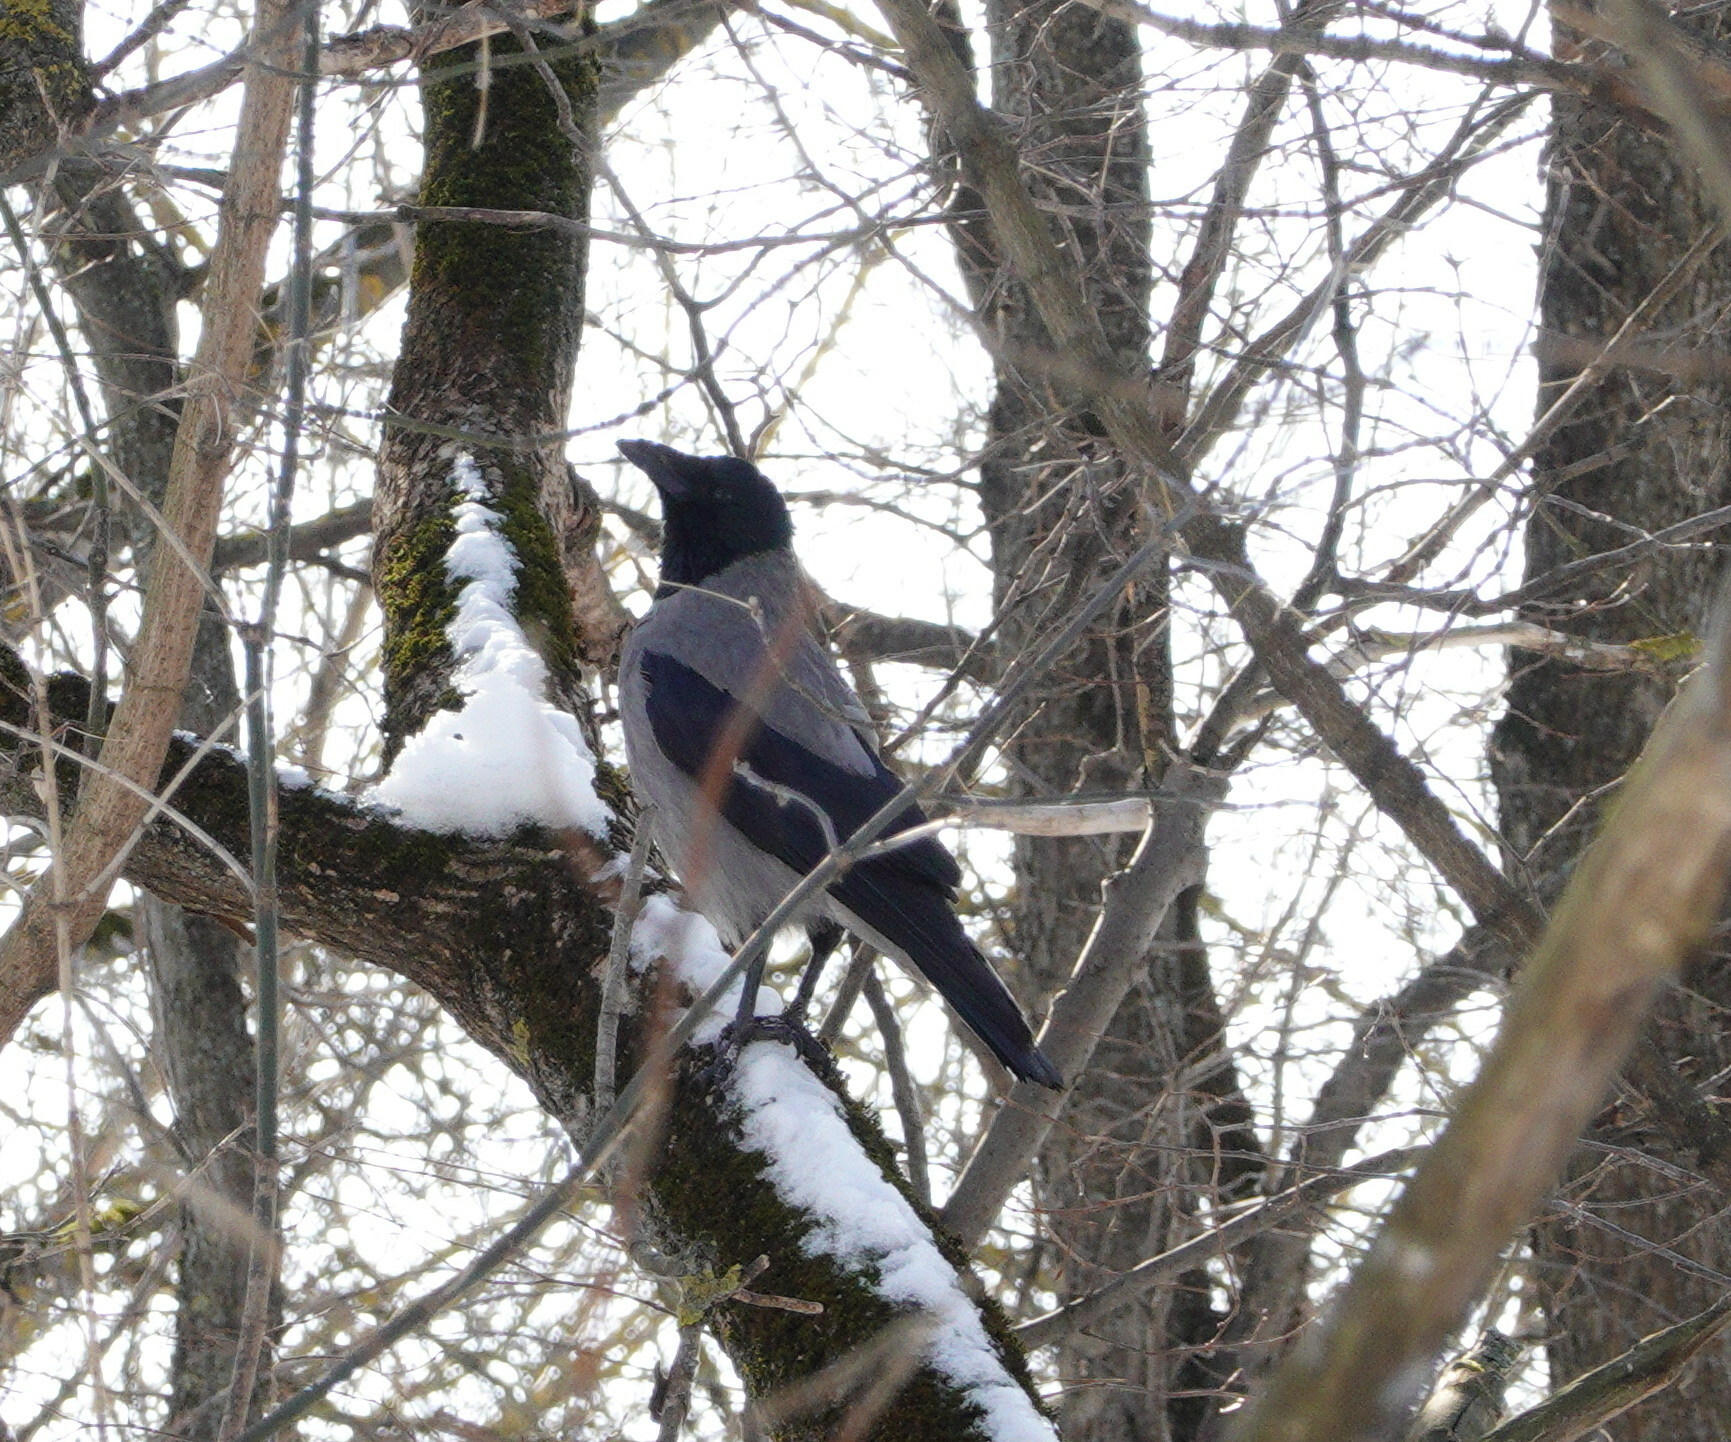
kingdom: Animalia
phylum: Chordata
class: Aves
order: Passeriformes
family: Corvidae
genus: Corvus
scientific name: Corvus cornix
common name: Hooded crow
